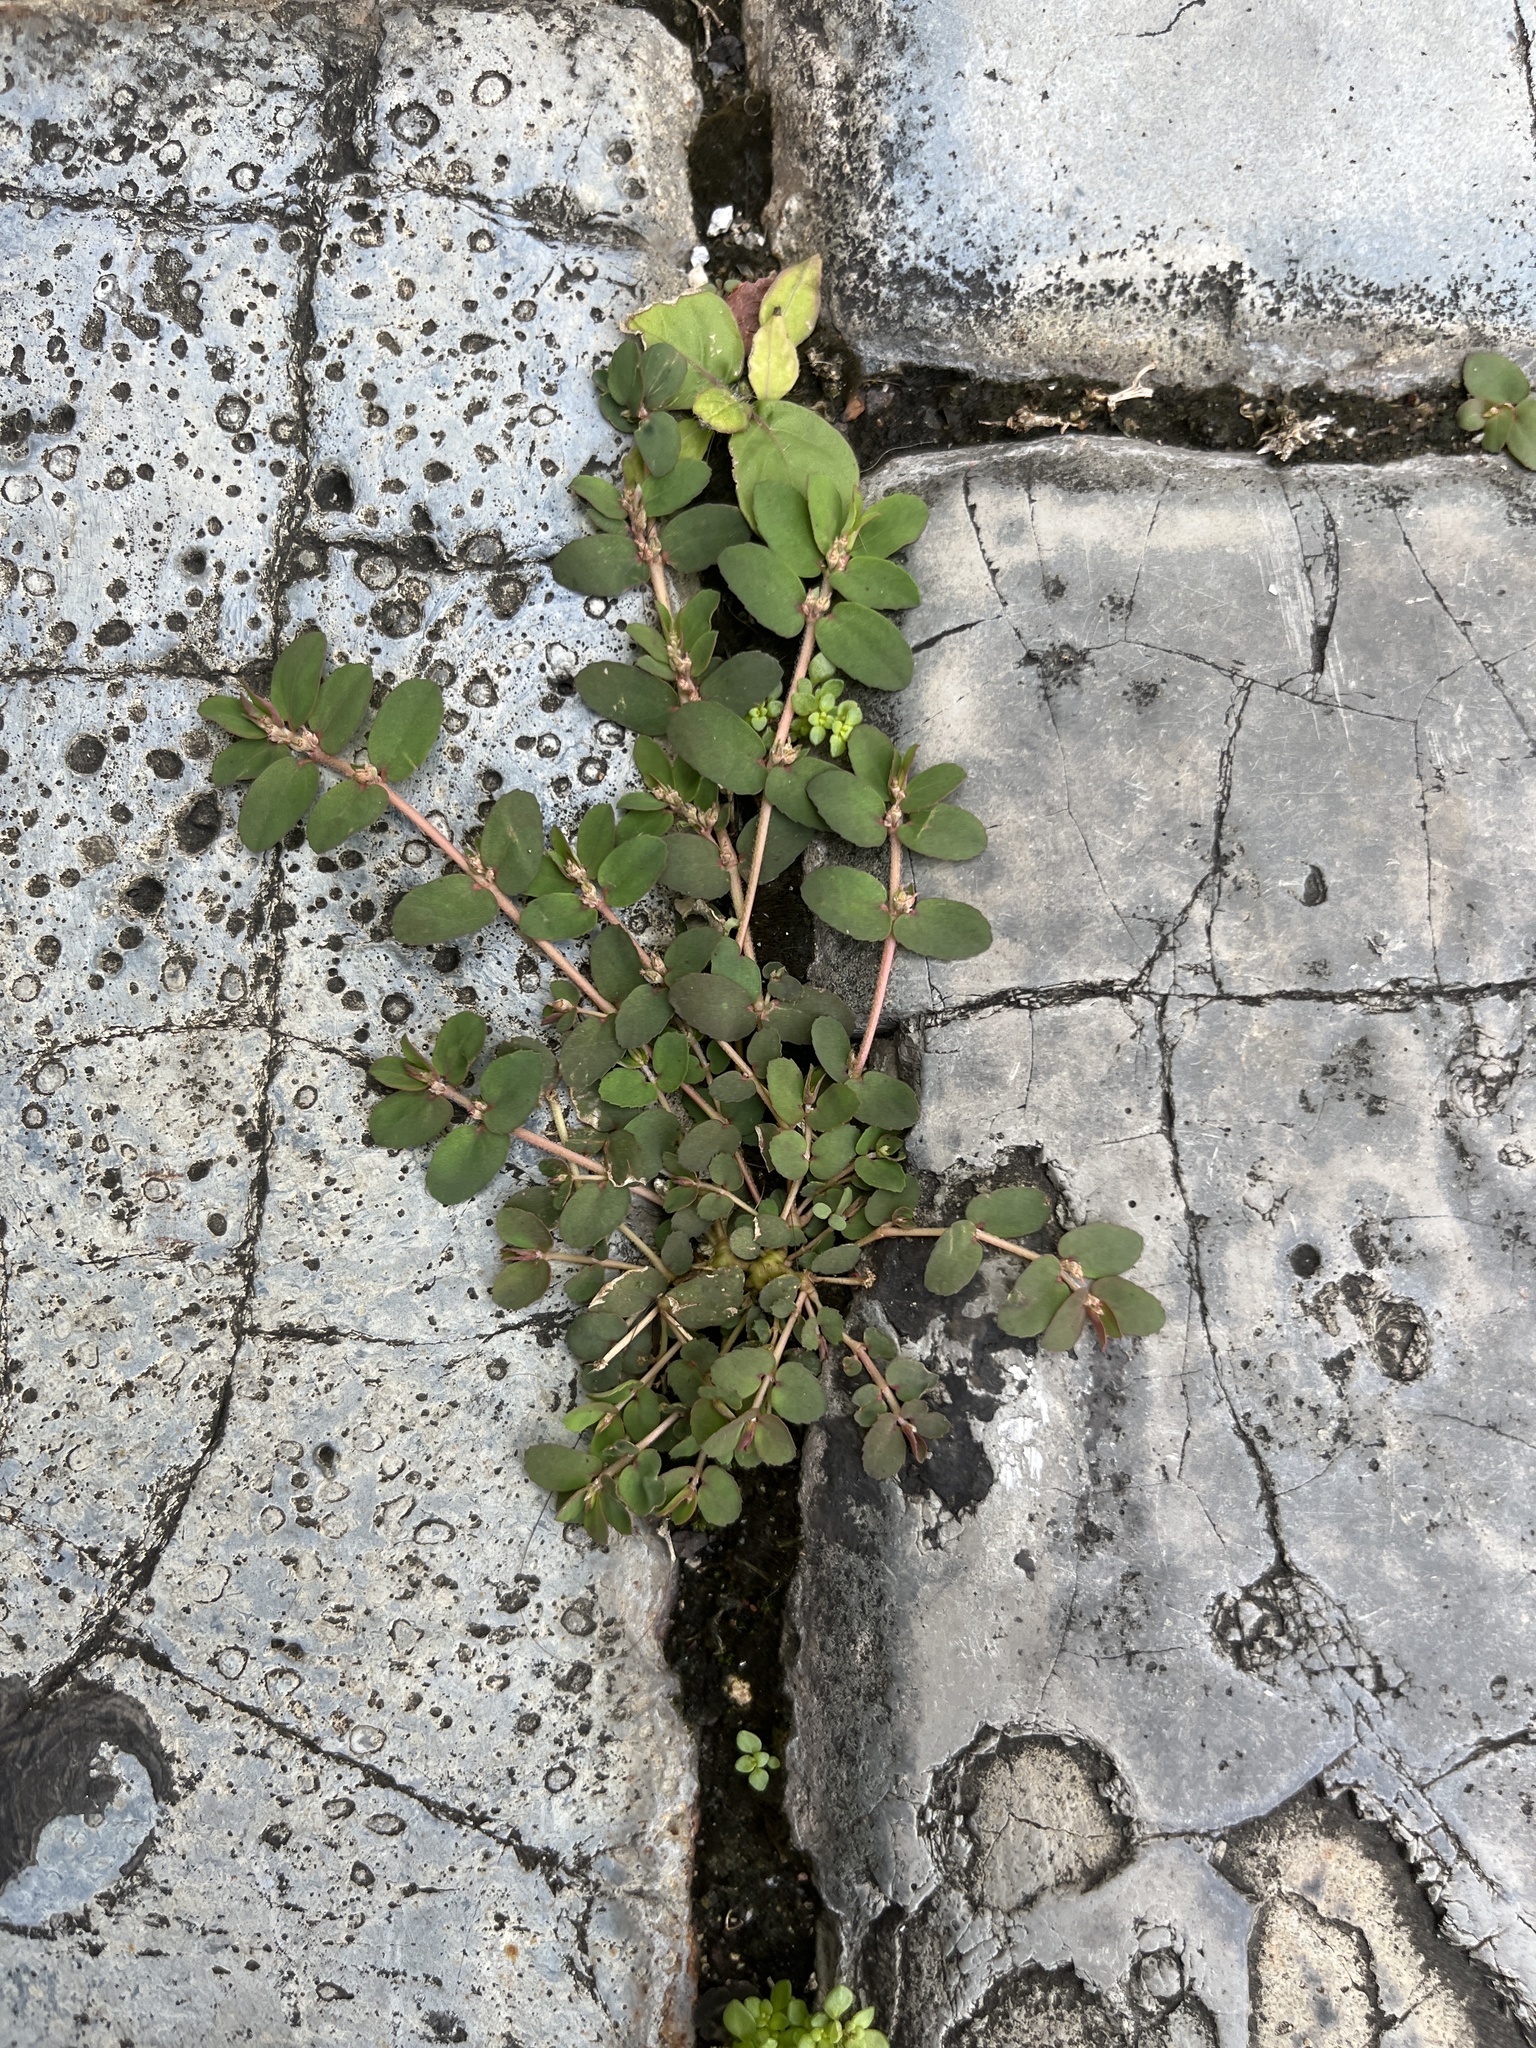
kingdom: Plantae
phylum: Tracheophyta
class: Magnoliopsida
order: Malpighiales
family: Euphorbiaceae
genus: Euphorbia
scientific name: Euphorbia thymifolia
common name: Gulf sandmat
